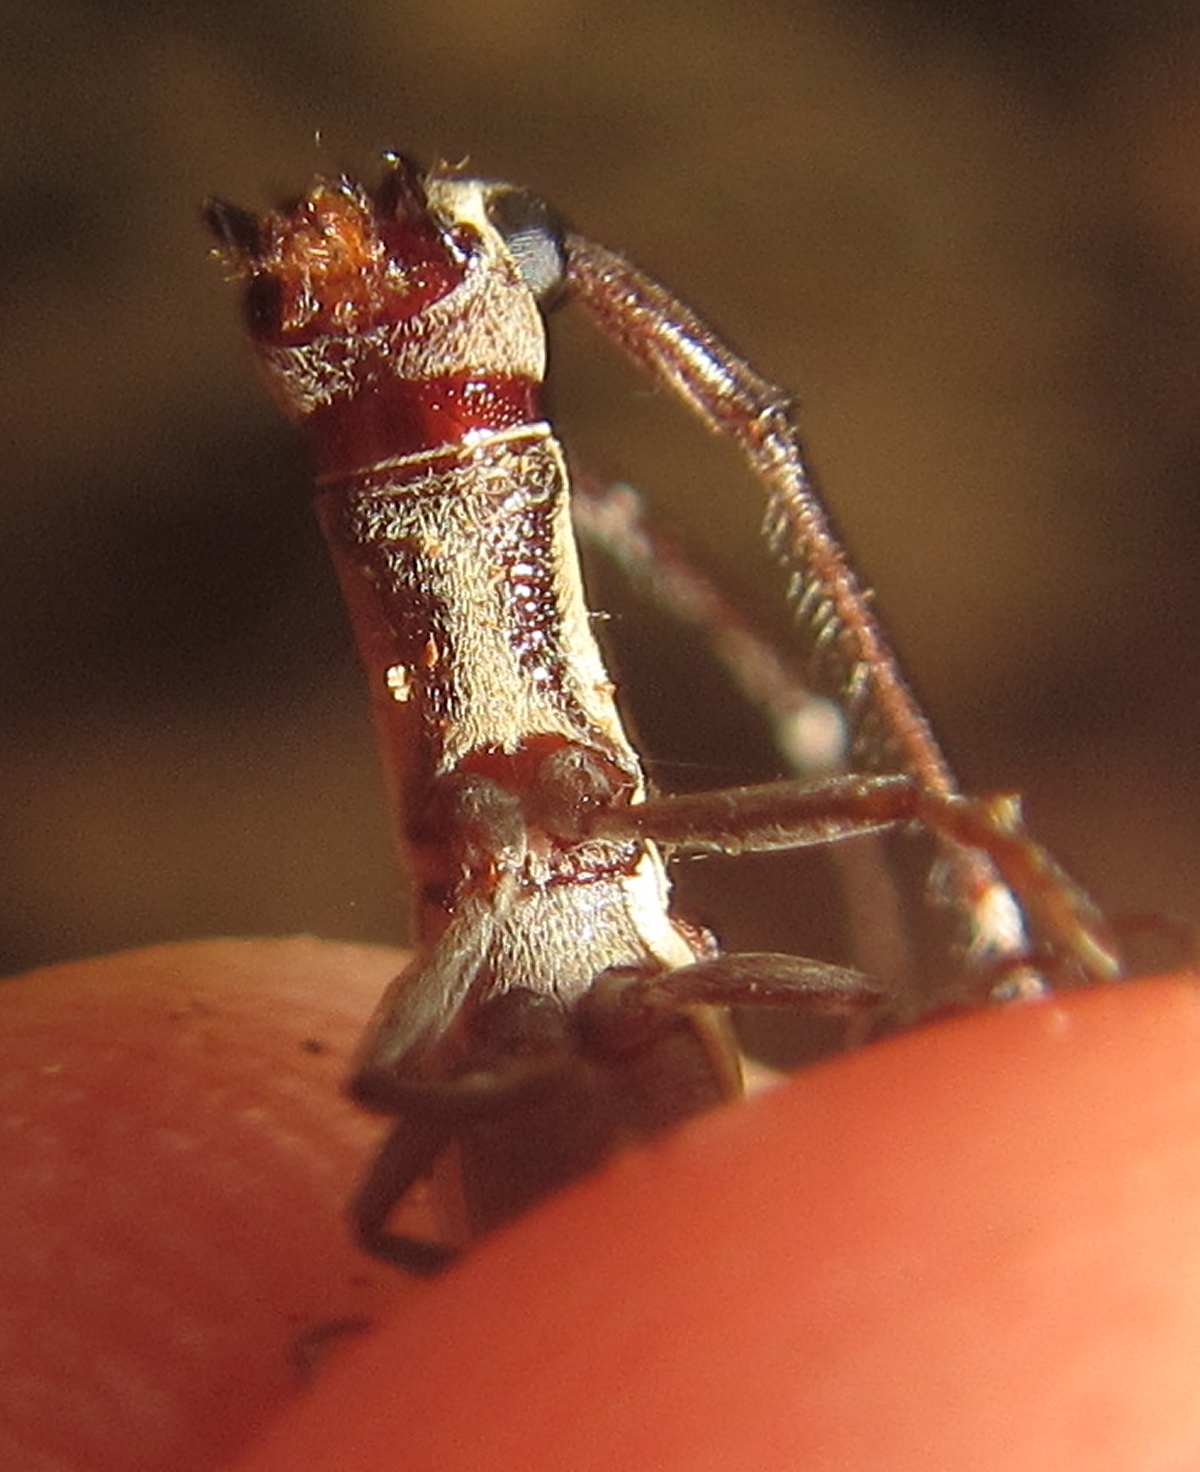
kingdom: Animalia
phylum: Arthropoda
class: Insecta
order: Coleoptera
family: Cerambycidae
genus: Anauxesis
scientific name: Anauxesis cincticornis
